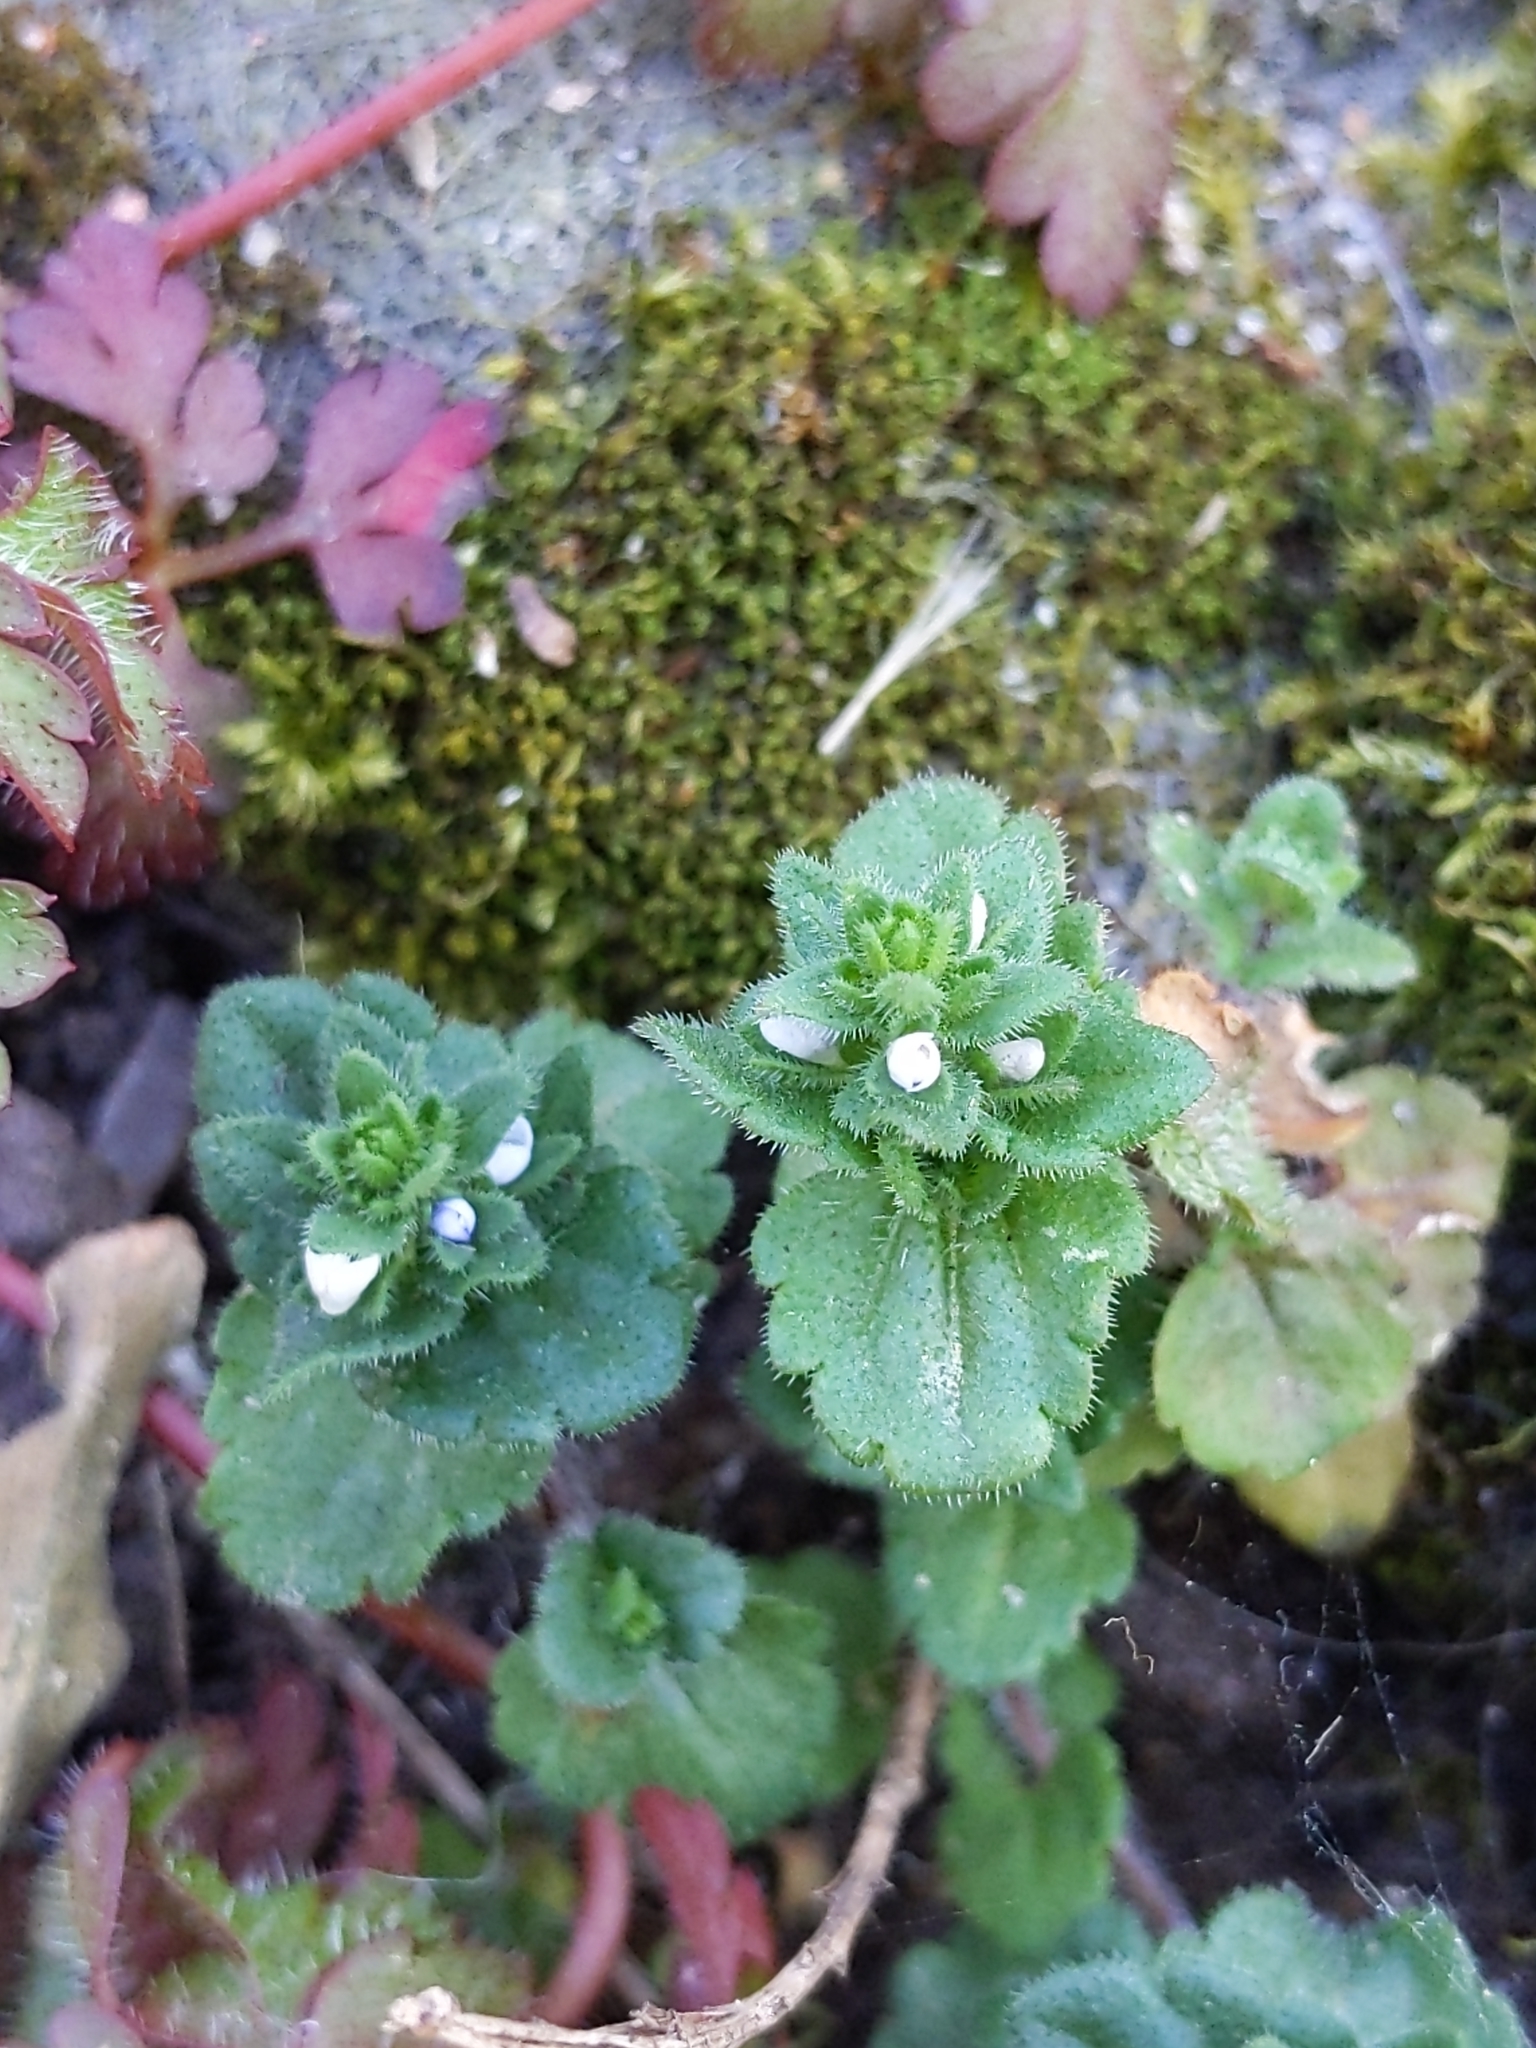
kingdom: Plantae
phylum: Tracheophyta
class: Magnoliopsida
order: Lamiales
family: Plantaginaceae
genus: Veronica
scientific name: Veronica arvensis
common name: Corn speedwell
